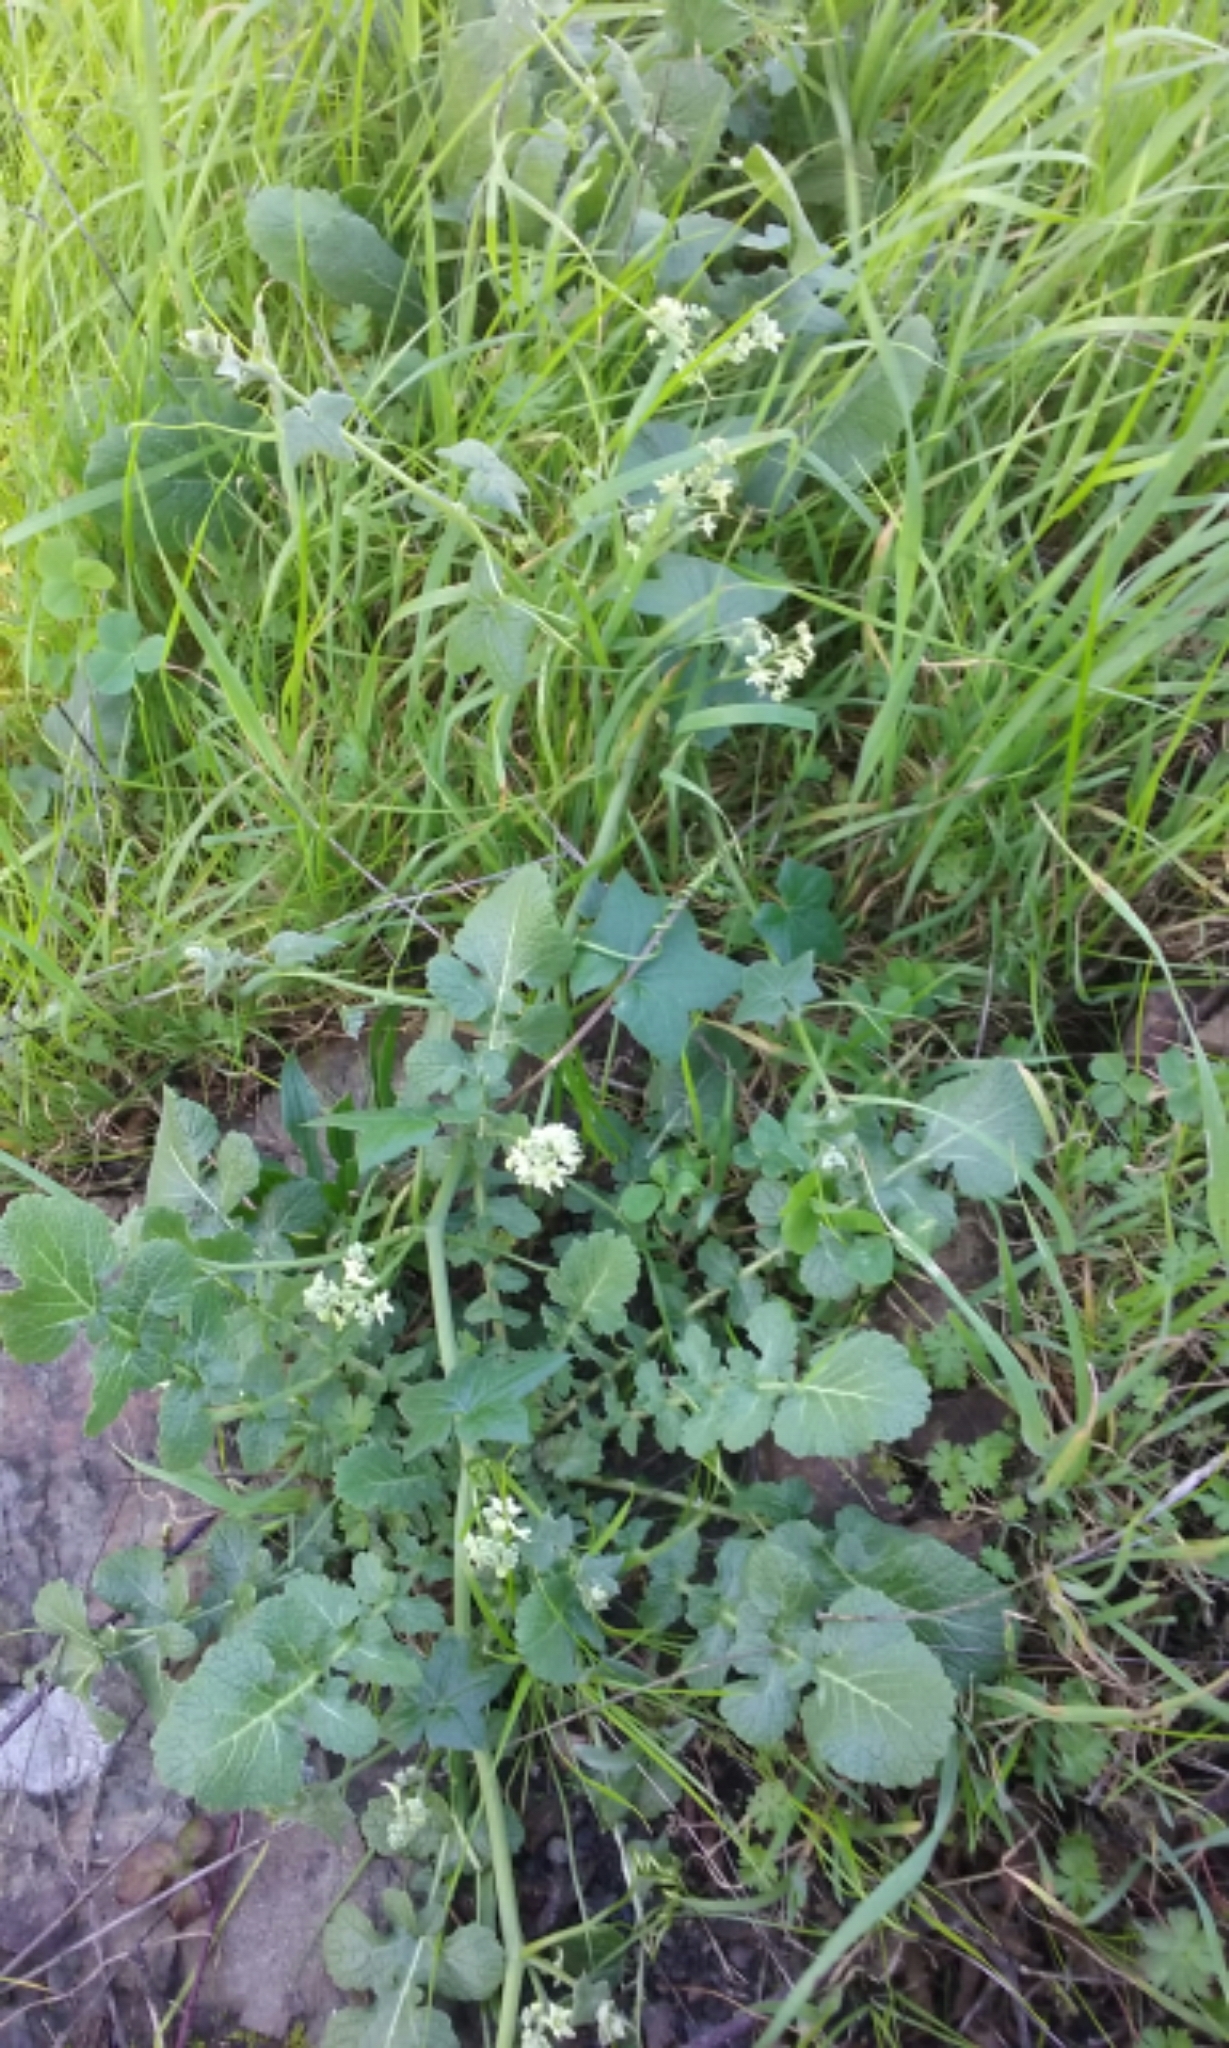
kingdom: Plantae
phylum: Tracheophyta
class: Magnoliopsida
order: Cucurbitales
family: Cucurbitaceae
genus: Marah
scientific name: Marah fabacea
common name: California manroot
